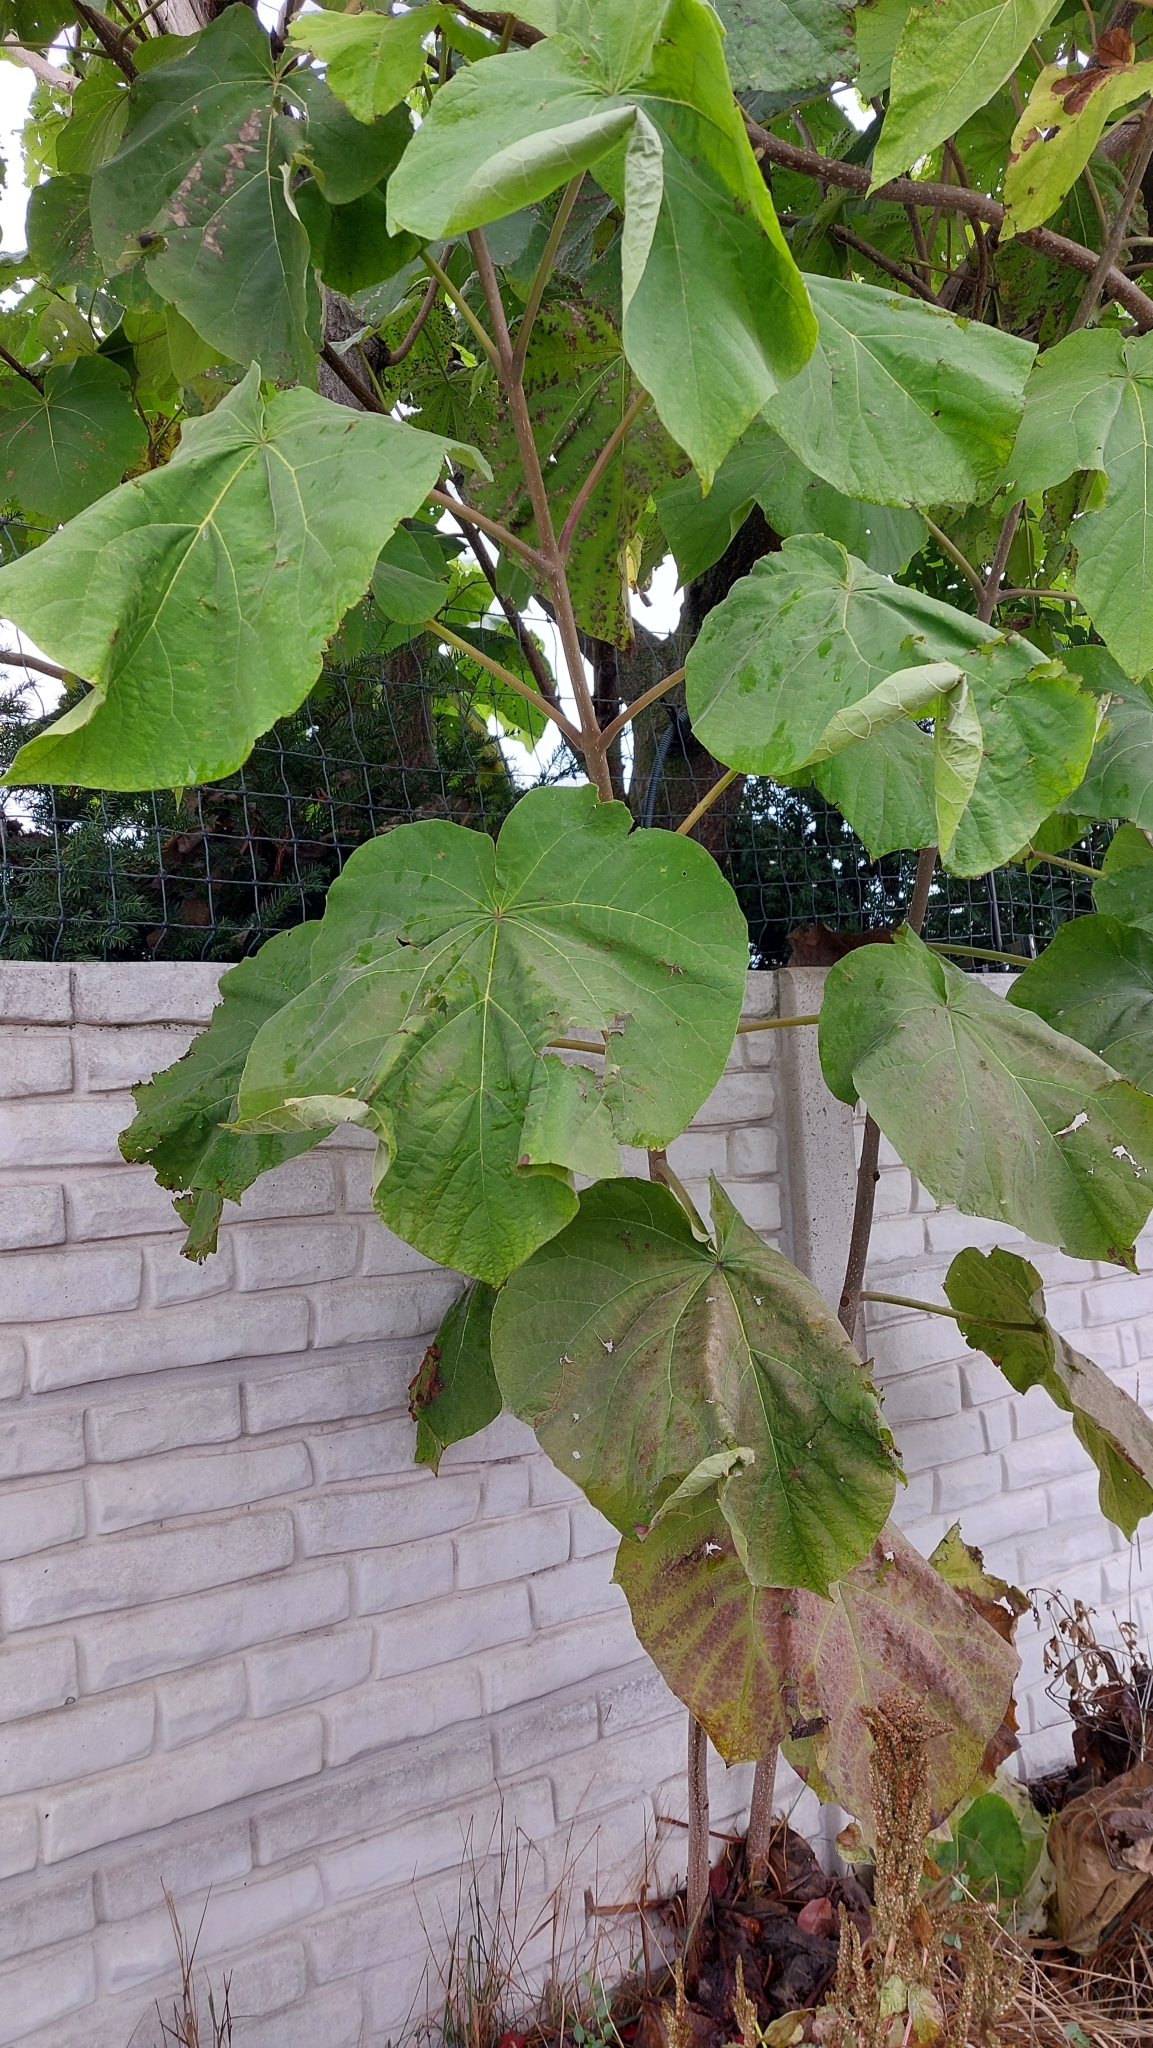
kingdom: Plantae
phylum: Tracheophyta
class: Magnoliopsida
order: Lamiales
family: Paulowniaceae
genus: Paulownia
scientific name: Paulownia tomentosa
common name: Foxglove-tree
